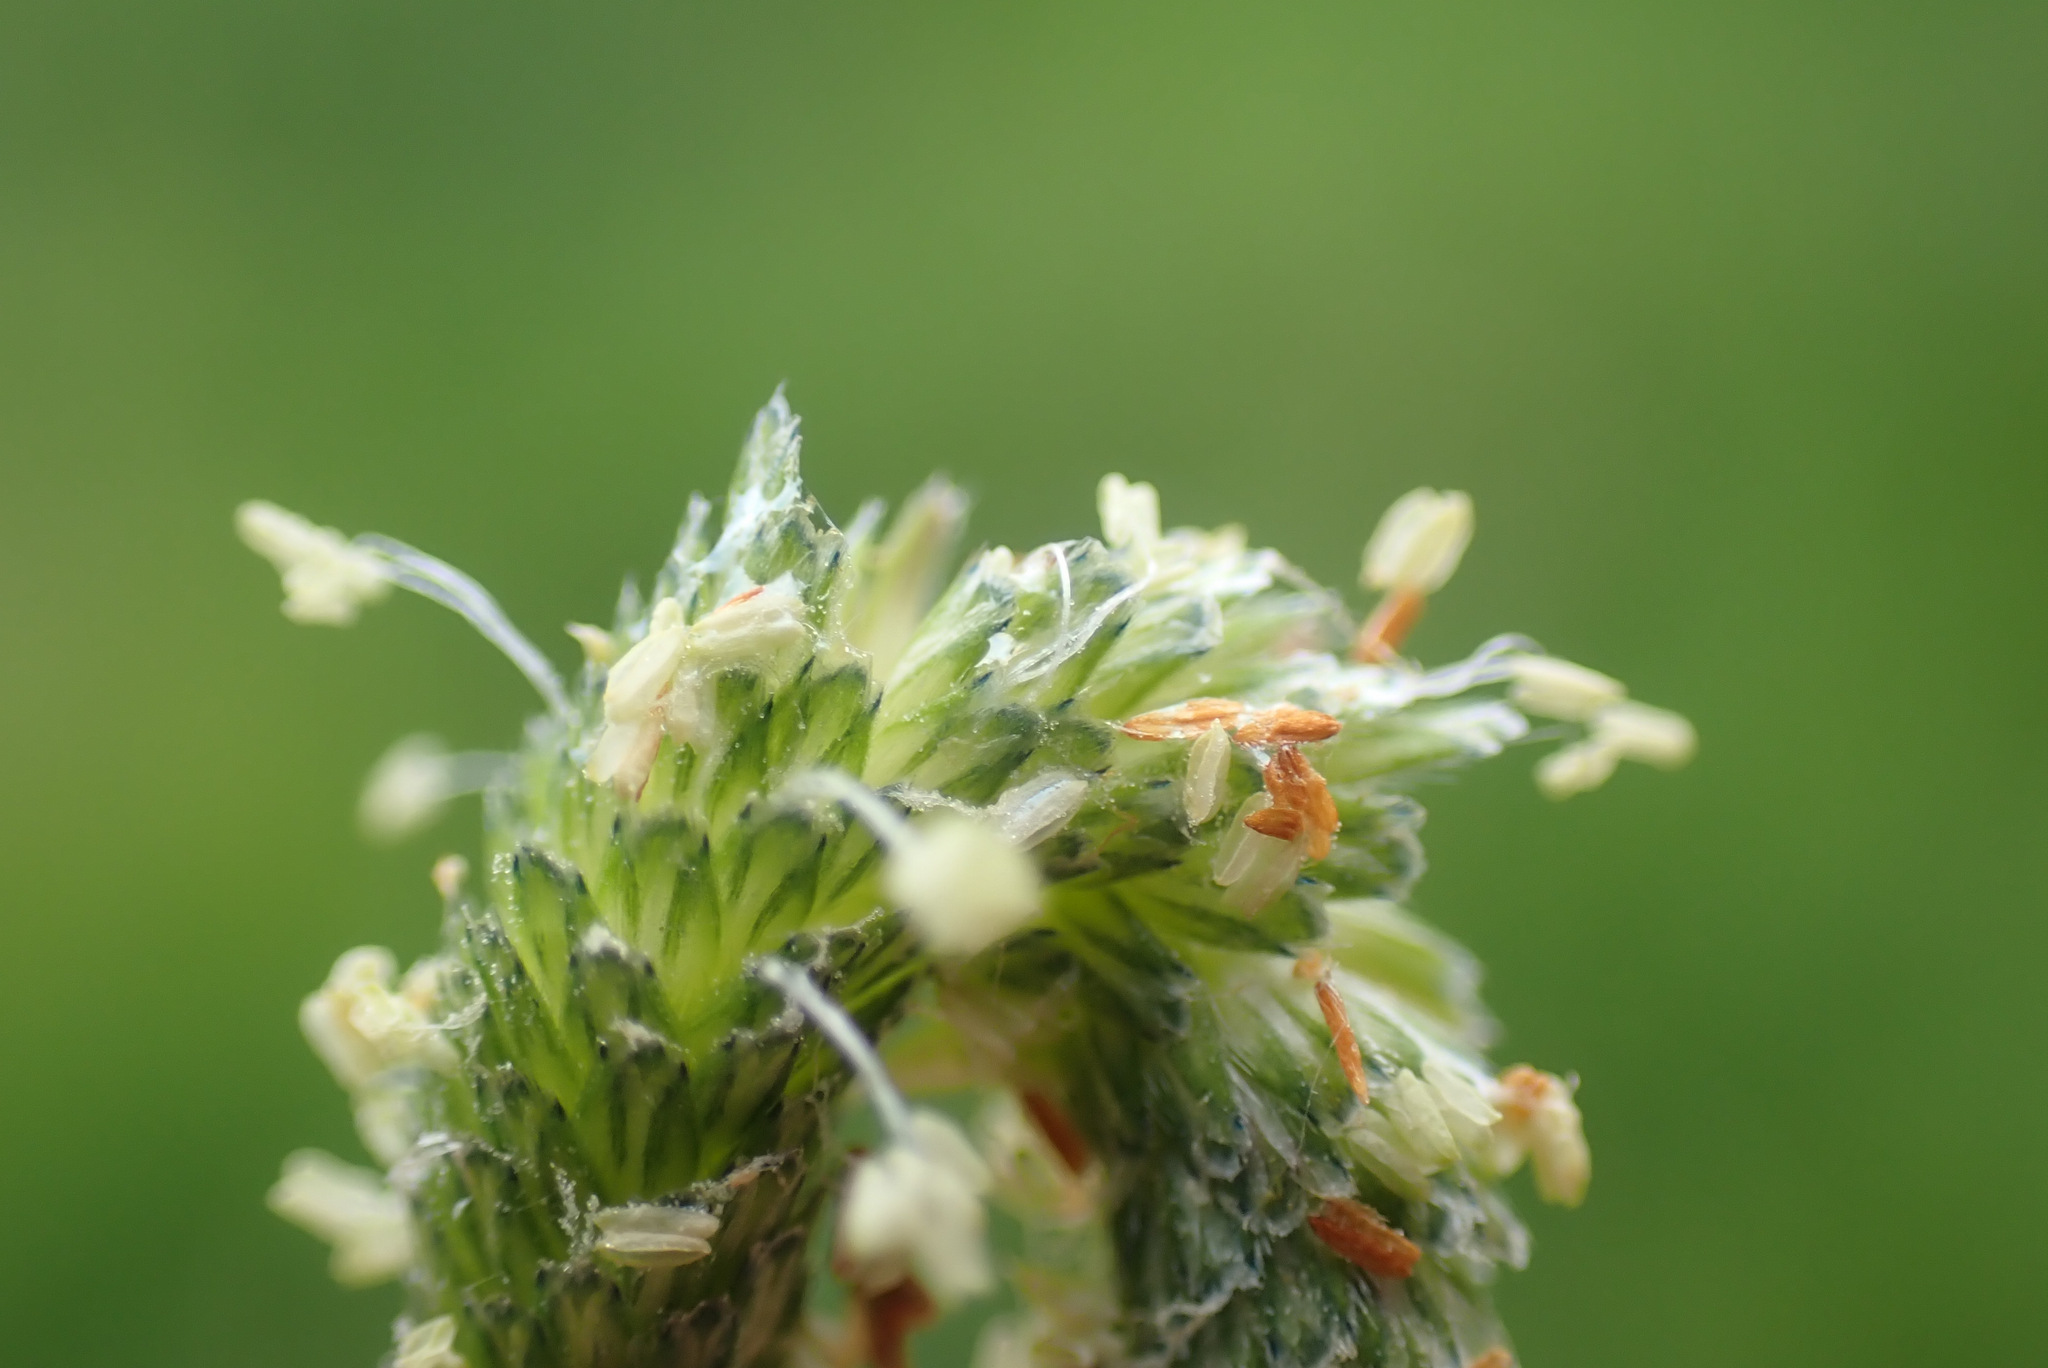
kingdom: Plantae
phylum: Tracheophyta
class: Liliopsida
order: Poales
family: Poaceae
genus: Alopecurus
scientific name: Alopecurus aequalis
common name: Orange foxtail
